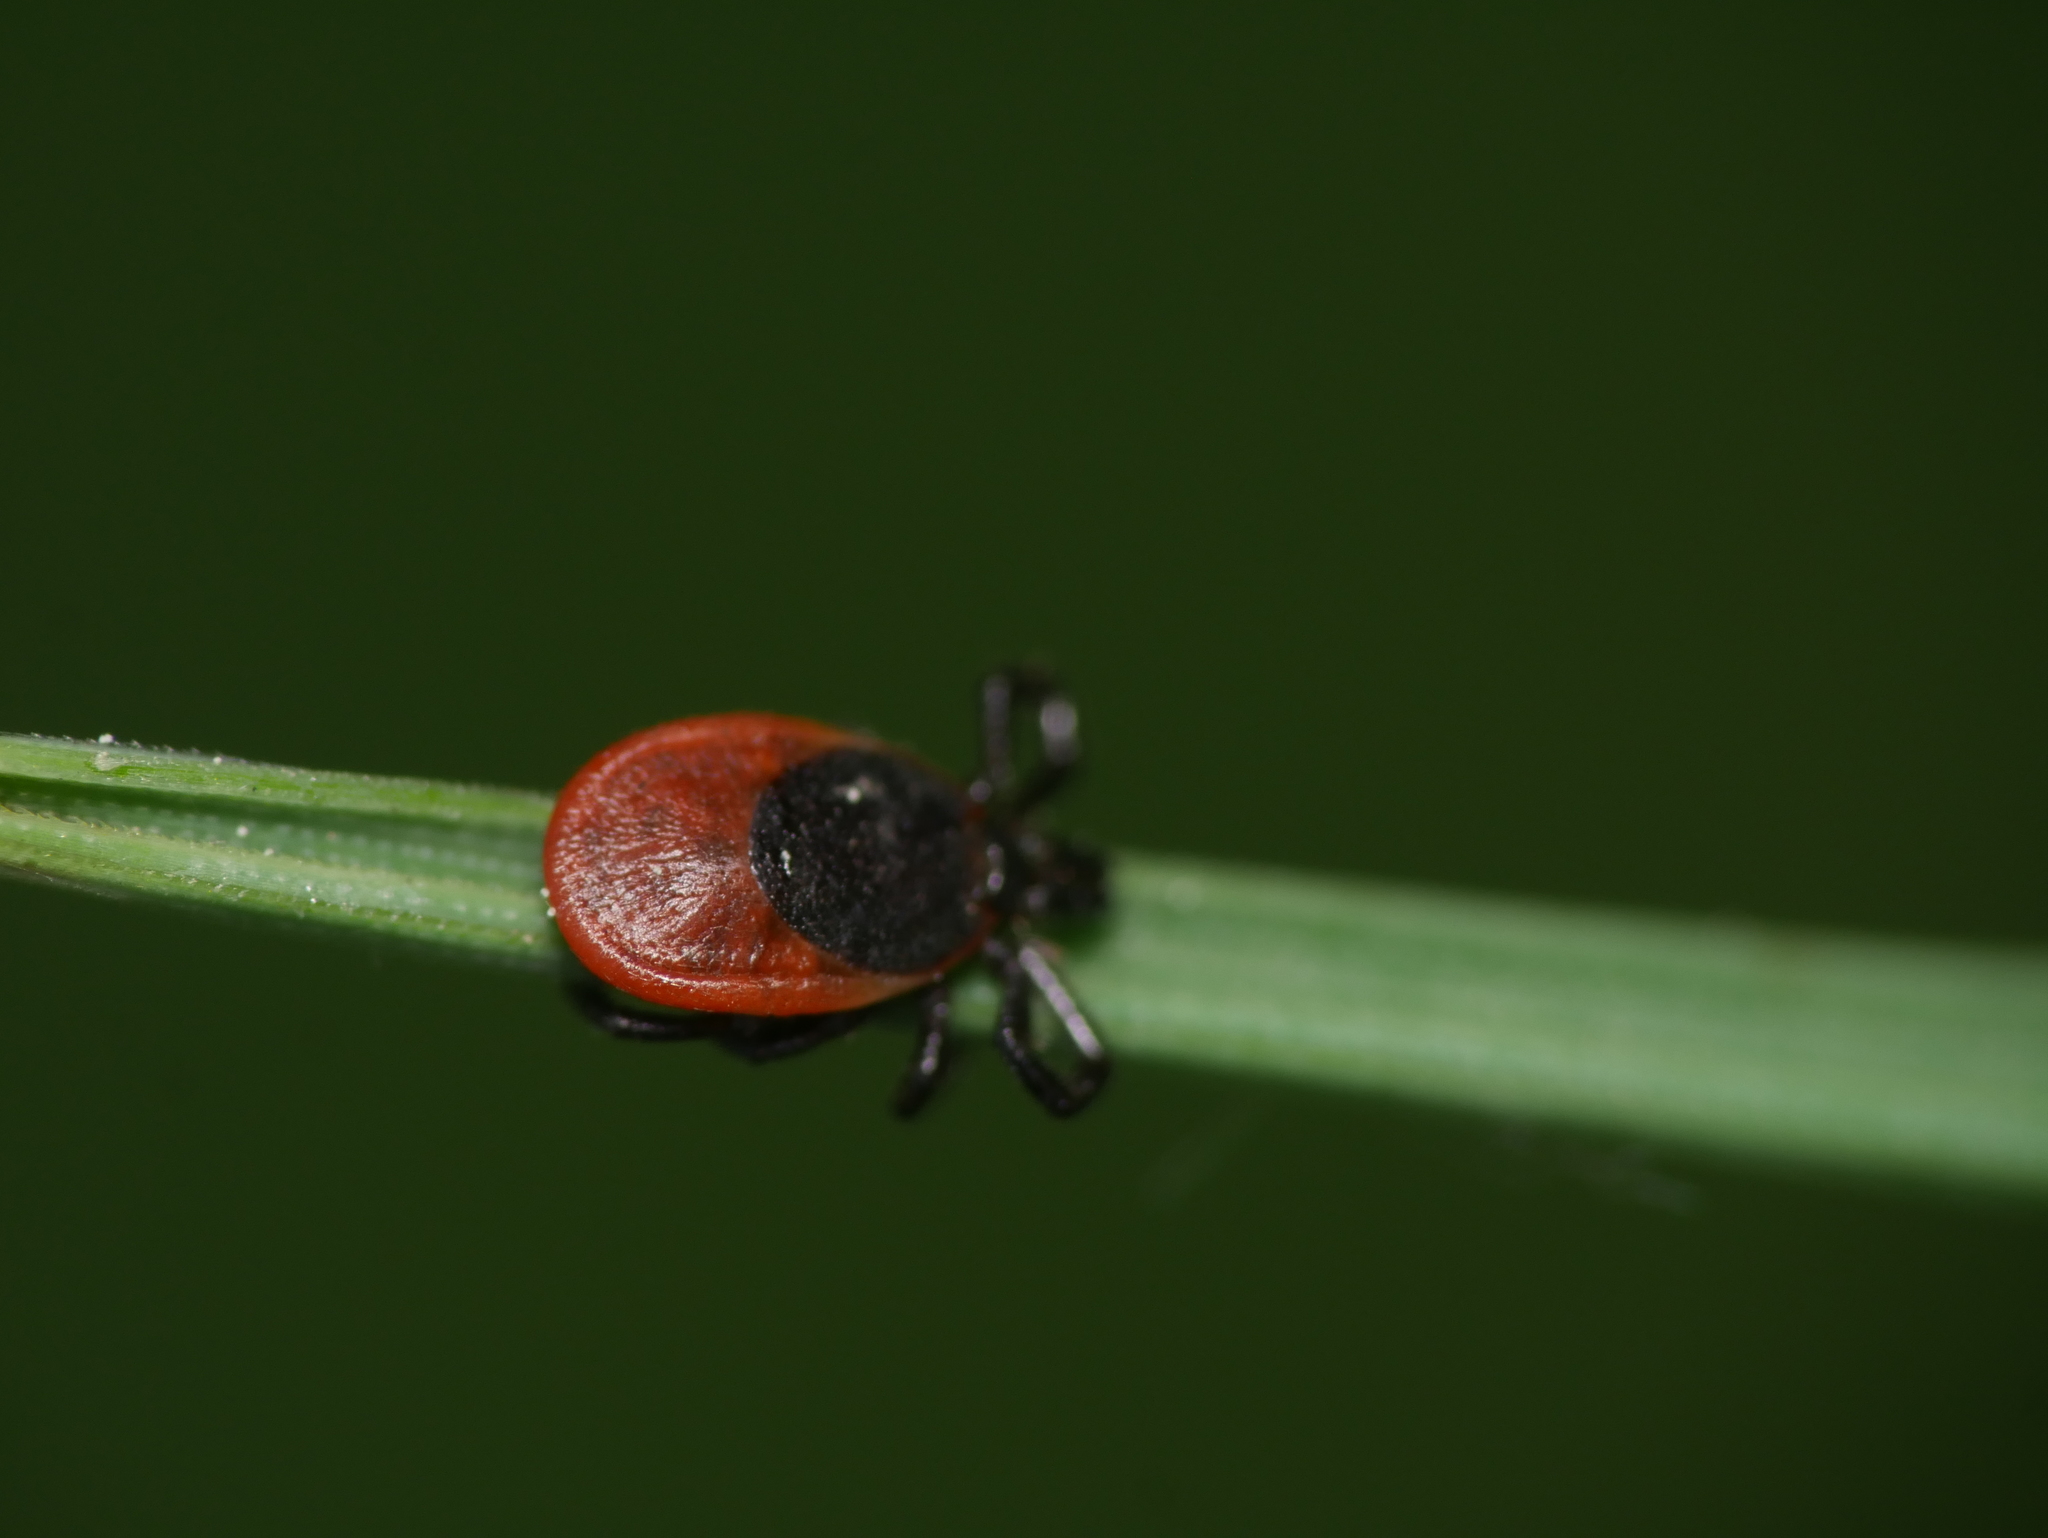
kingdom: Animalia
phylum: Arthropoda
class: Arachnida
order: Ixodida
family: Ixodidae
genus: Ixodes
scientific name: Ixodes ricinus
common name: Castor bean tick
